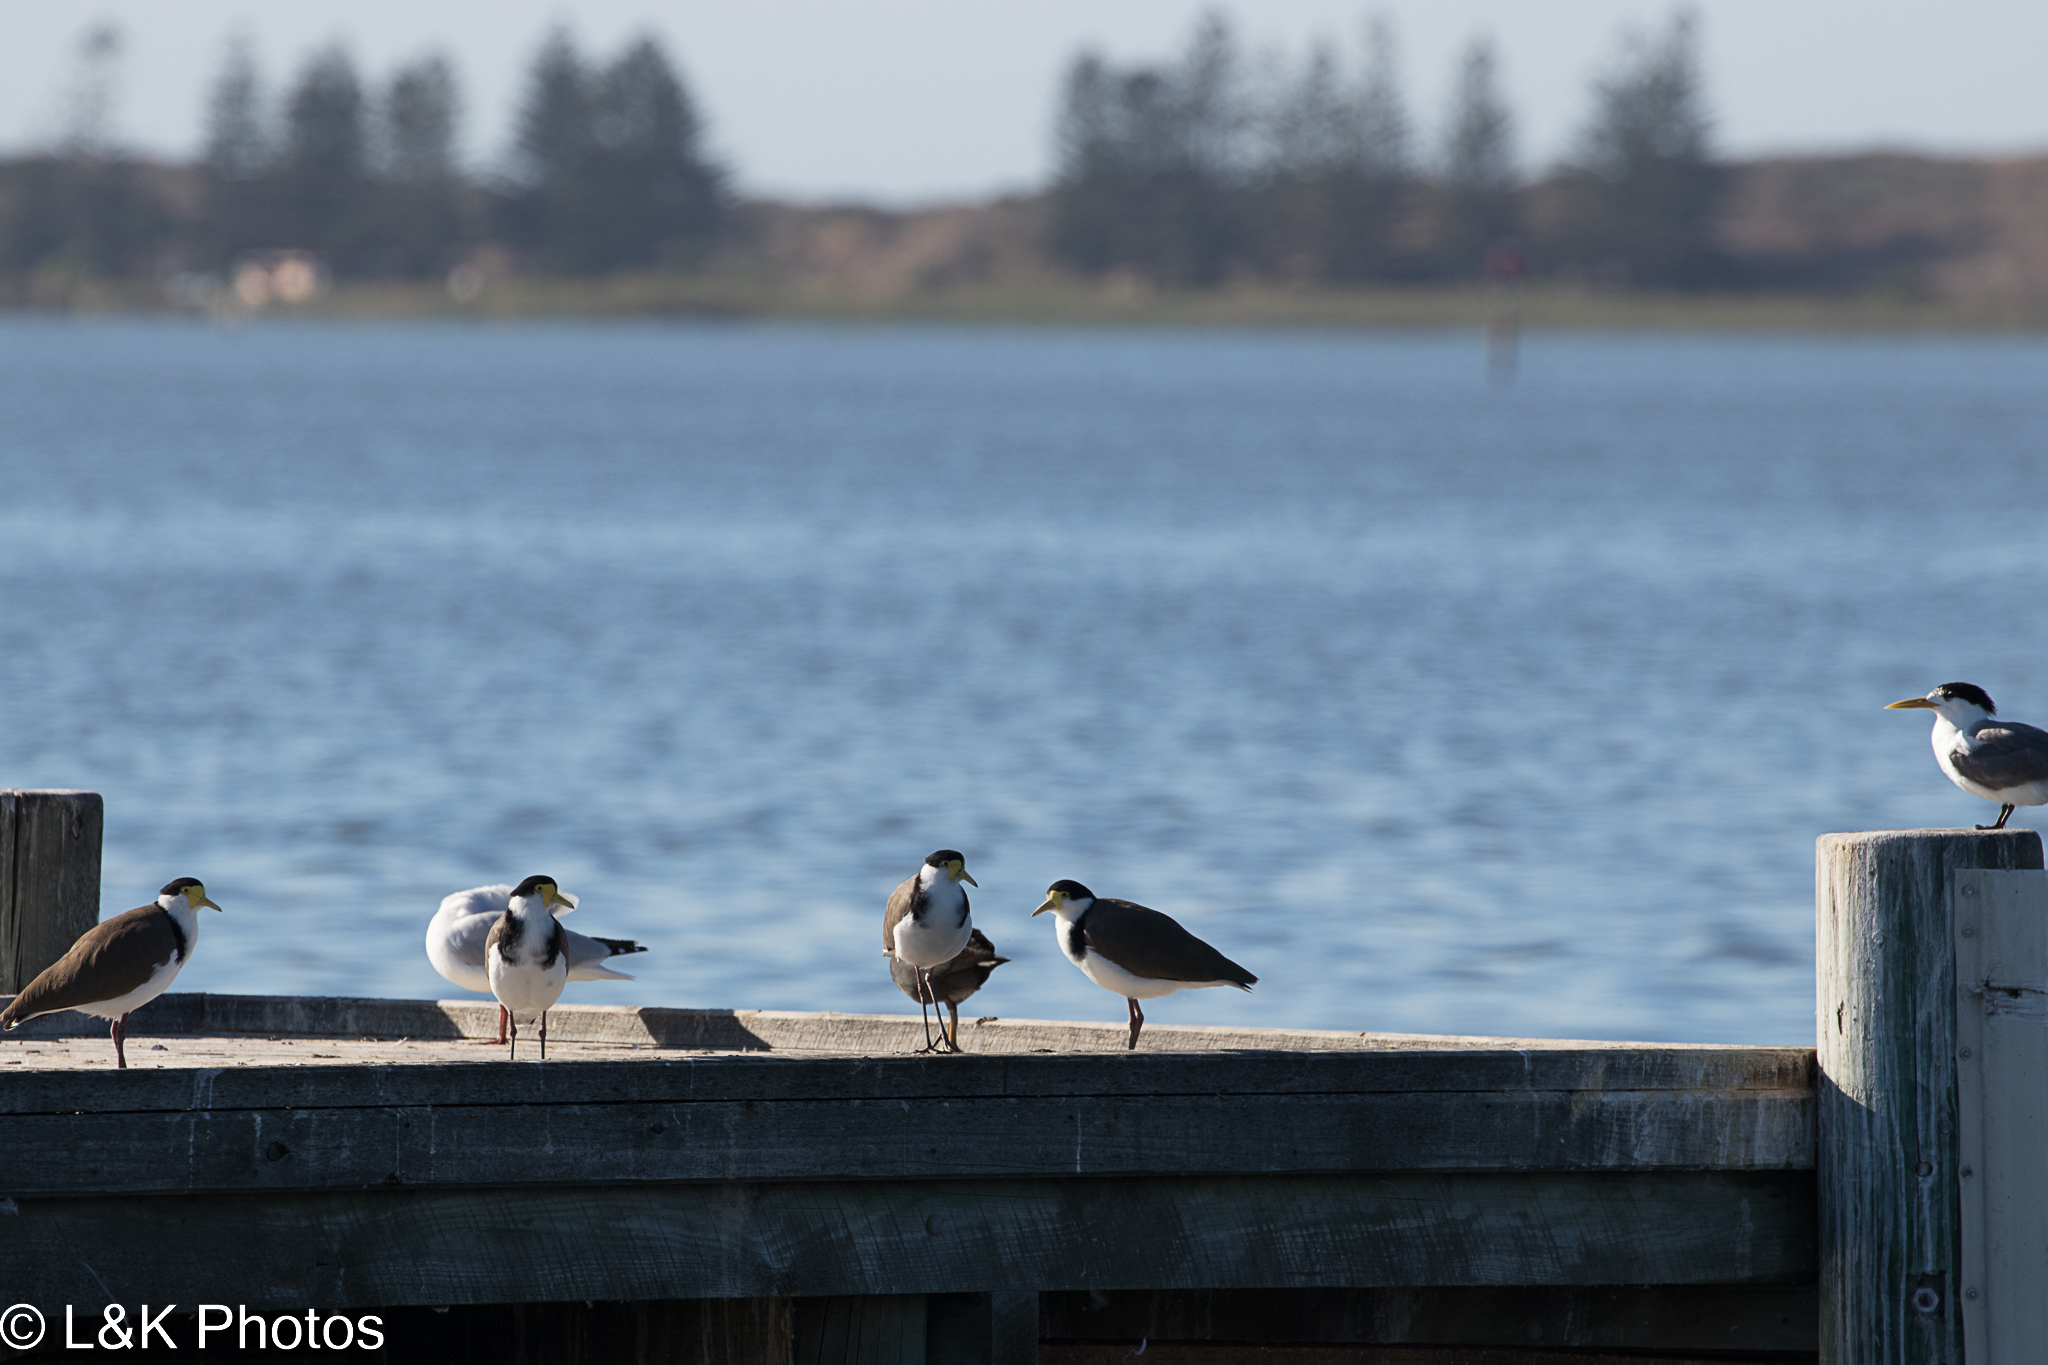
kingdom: Animalia
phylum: Chordata
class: Aves
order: Charadriiformes
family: Charadriidae
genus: Vanellus
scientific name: Vanellus miles
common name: Masked lapwing
